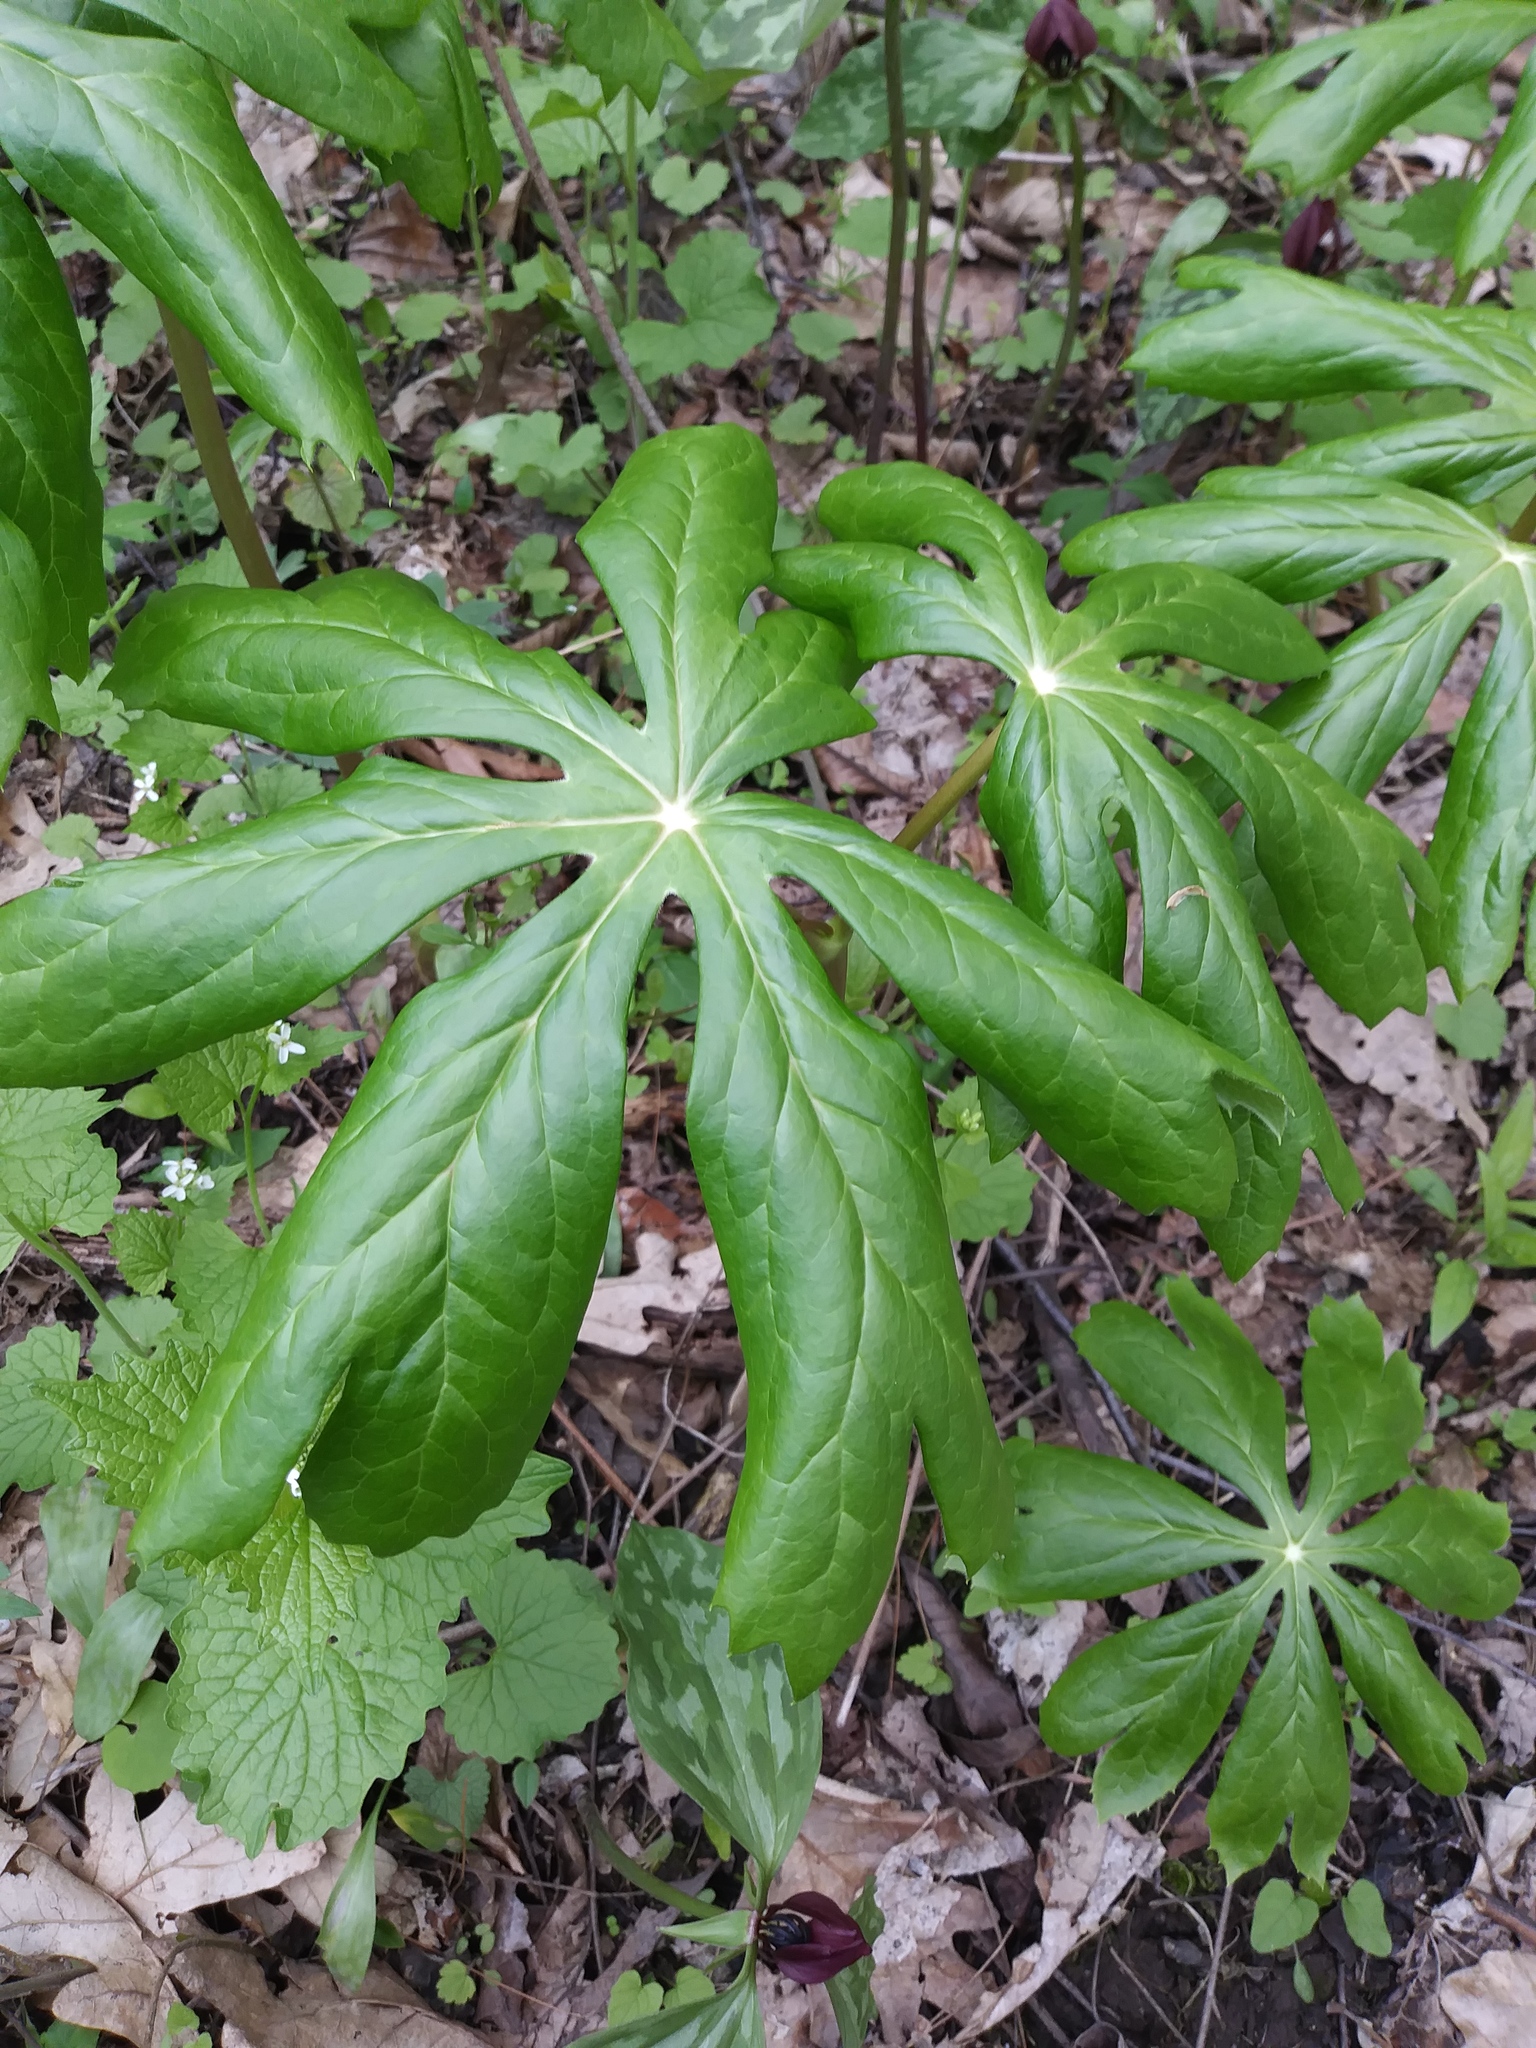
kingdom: Plantae
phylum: Tracheophyta
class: Magnoliopsida
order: Ranunculales
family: Berberidaceae
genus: Podophyllum
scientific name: Podophyllum peltatum
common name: Wild mandrake
